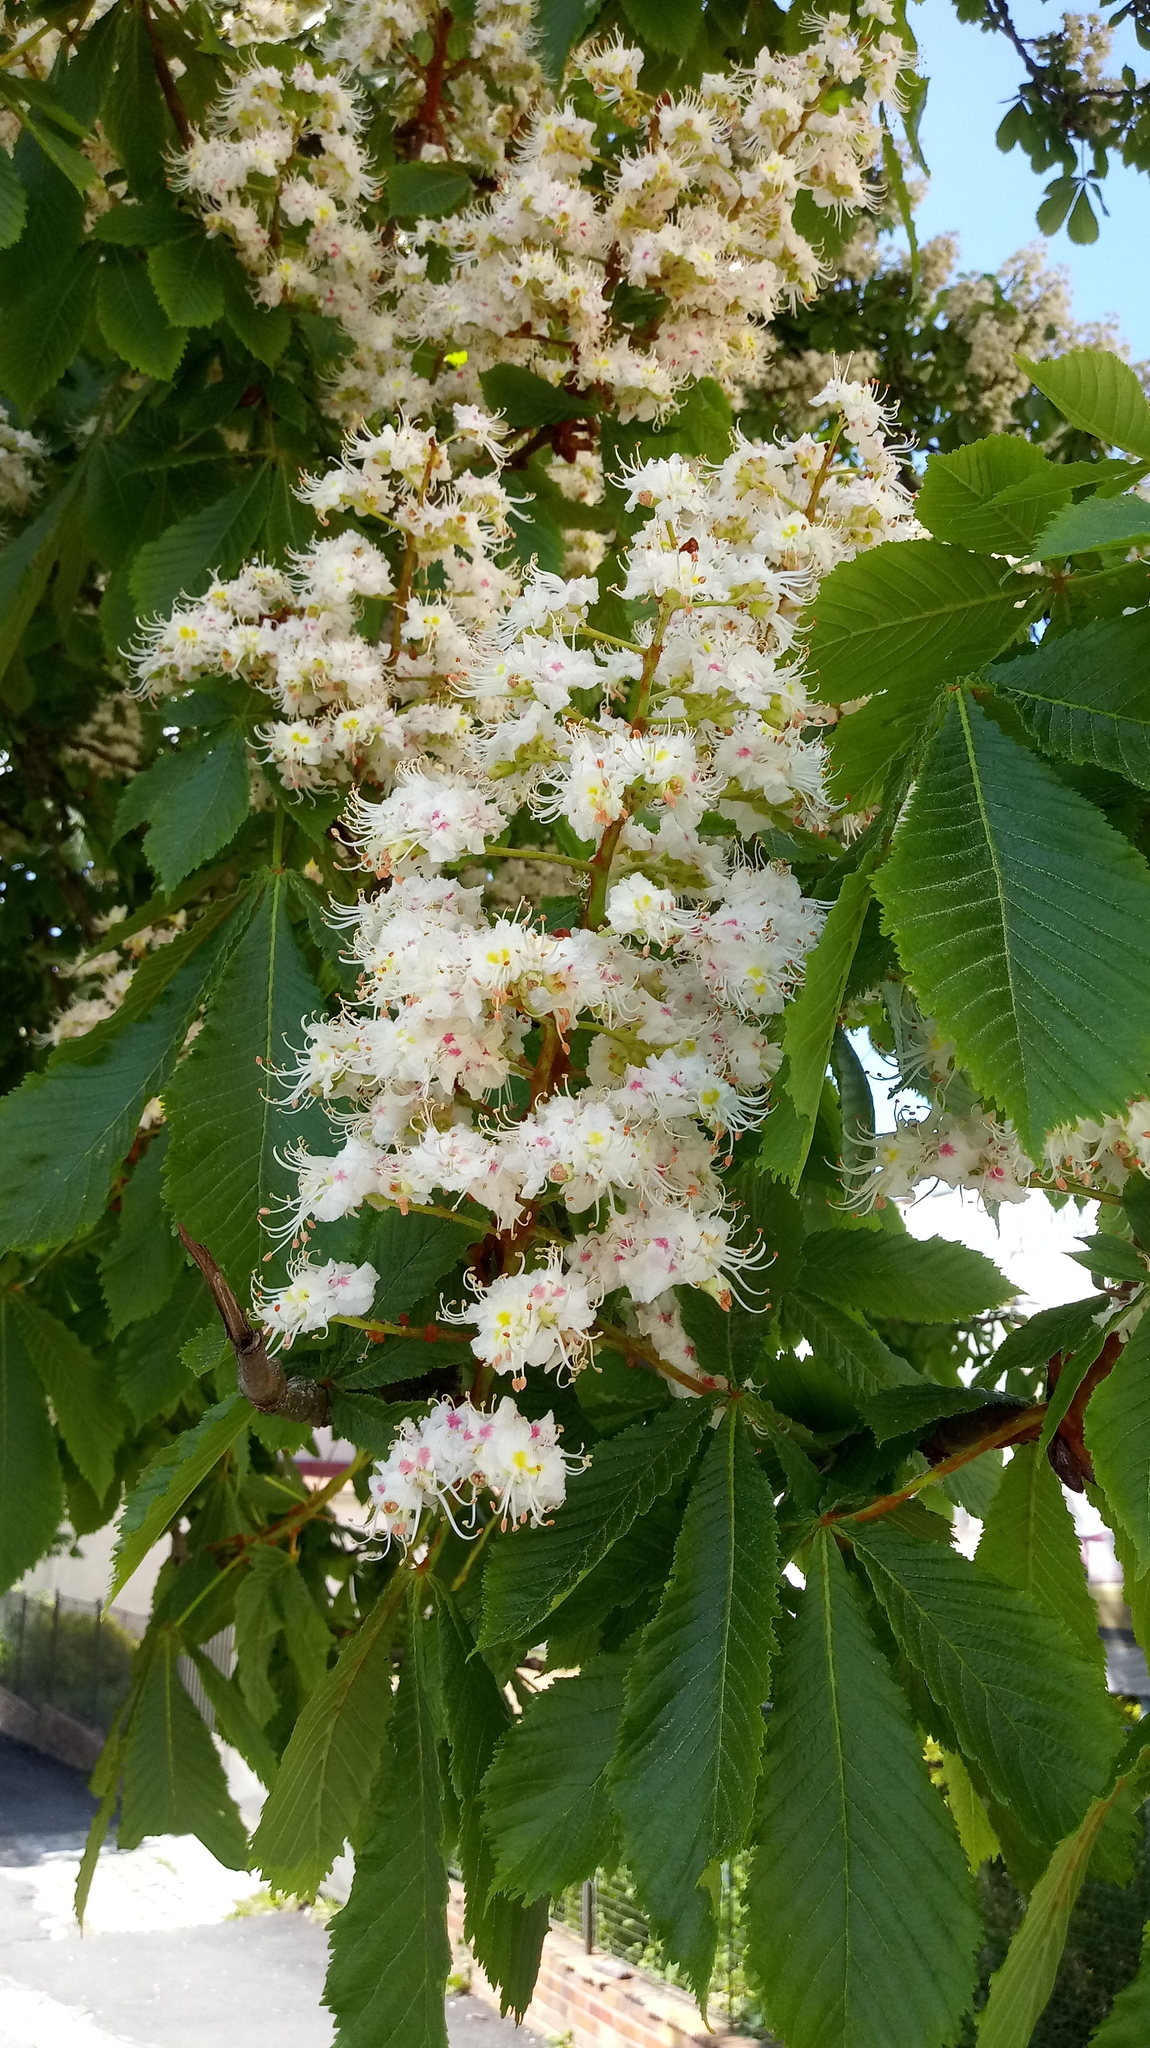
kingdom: Plantae
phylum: Tracheophyta
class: Magnoliopsida
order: Sapindales
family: Sapindaceae
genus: Aesculus
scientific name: Aesculus hippocastanum
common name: Horse-chestnut
